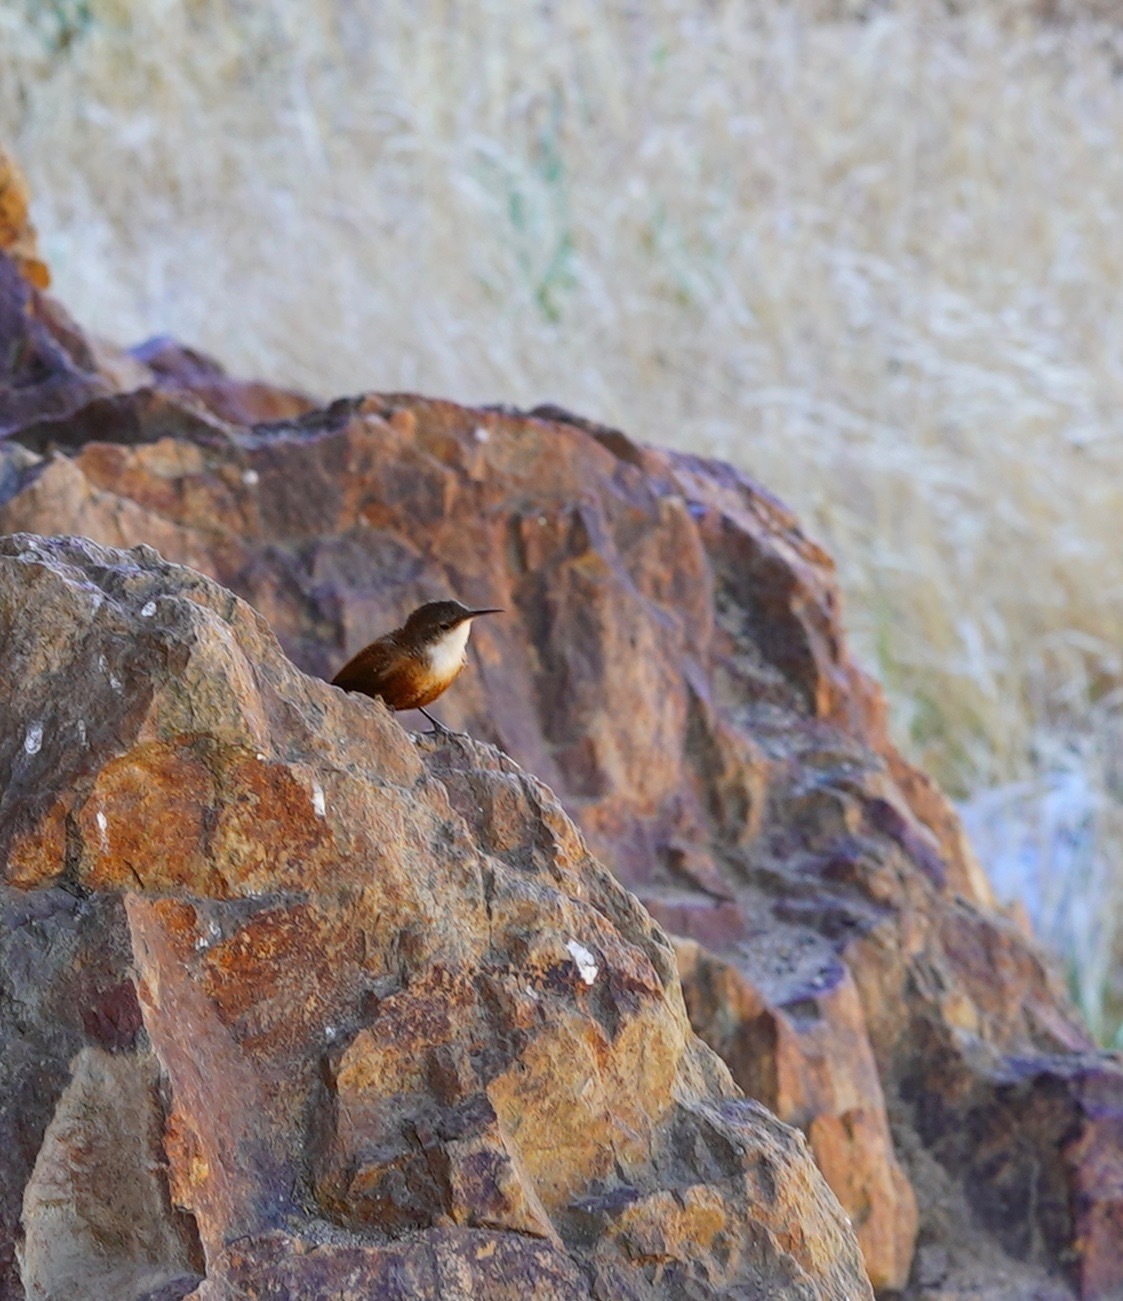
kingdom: Animalia
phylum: Chordata
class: Aves
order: Passeriformes
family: Troglodytidae
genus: Catherpes
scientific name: Catherpes mexicanus
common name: Canyon wren
